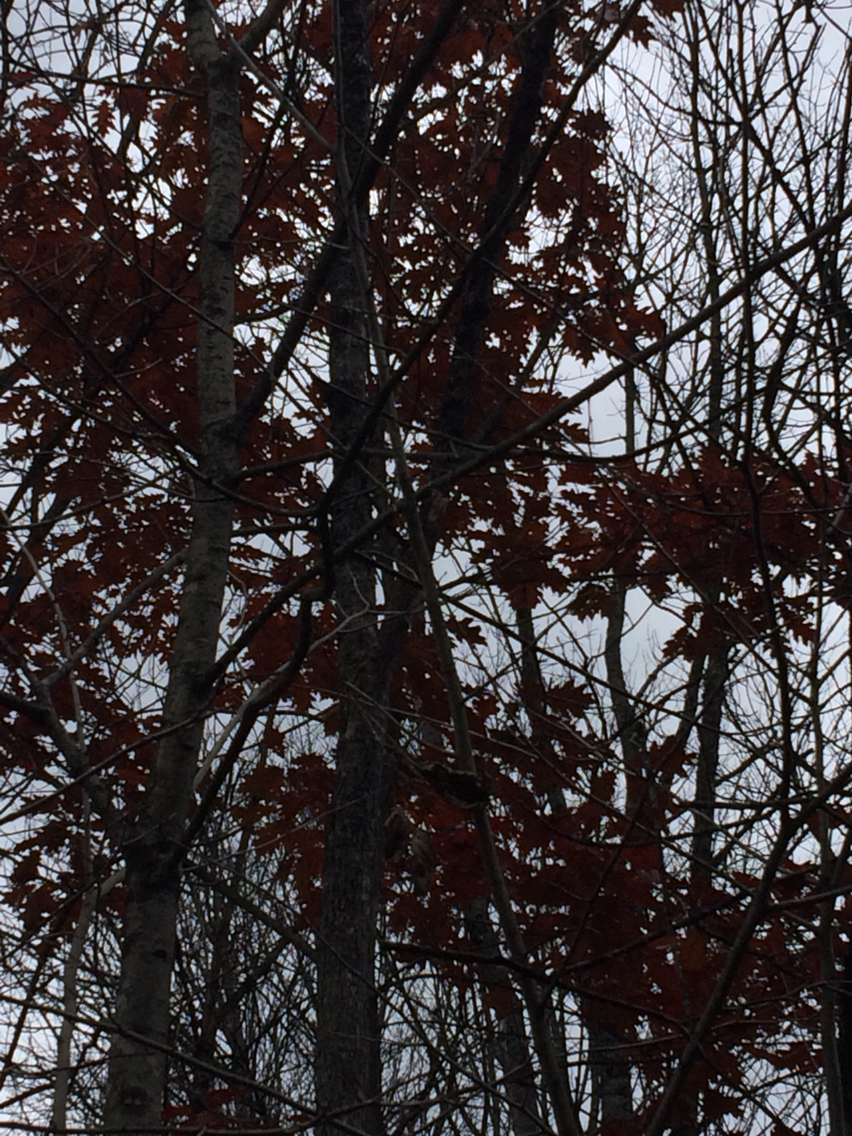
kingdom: Plantae
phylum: Tracheophyta
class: Magnoliopsida
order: Fagales
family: Fagaceae
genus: Quercus
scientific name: Quercus rubra
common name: Red oak
